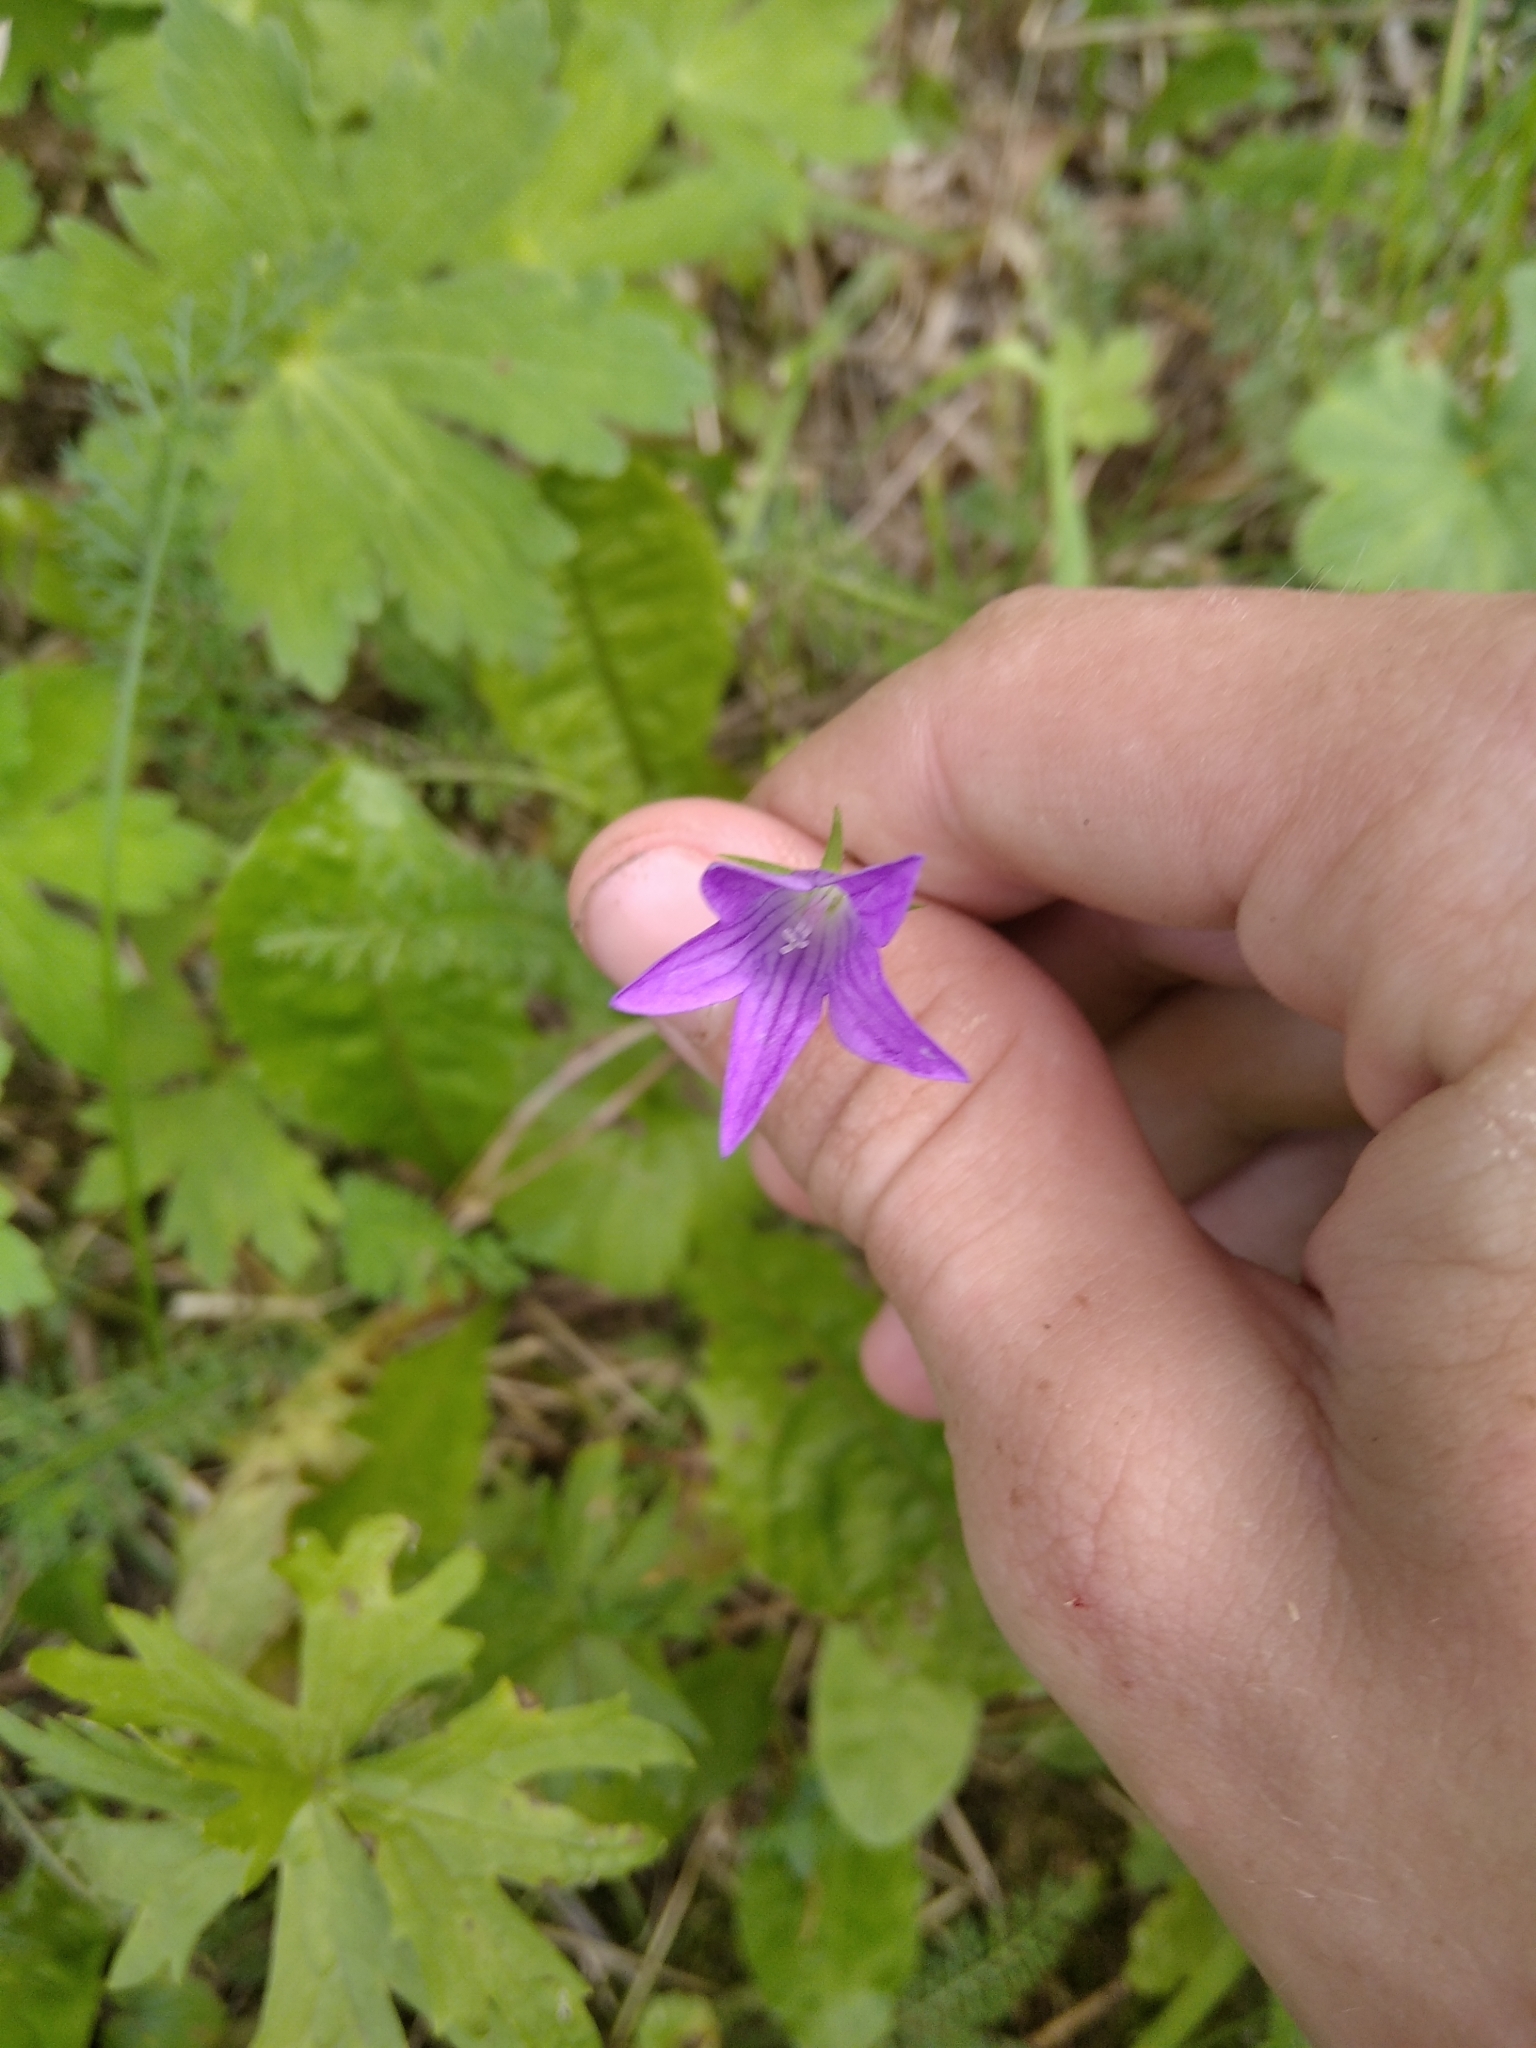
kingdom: Plantae
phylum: Tracheophyta
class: Magnoliopsida
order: Asterales
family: Campanulaceae
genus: Campanula
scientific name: Campanula patula
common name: Spreading bellflower
